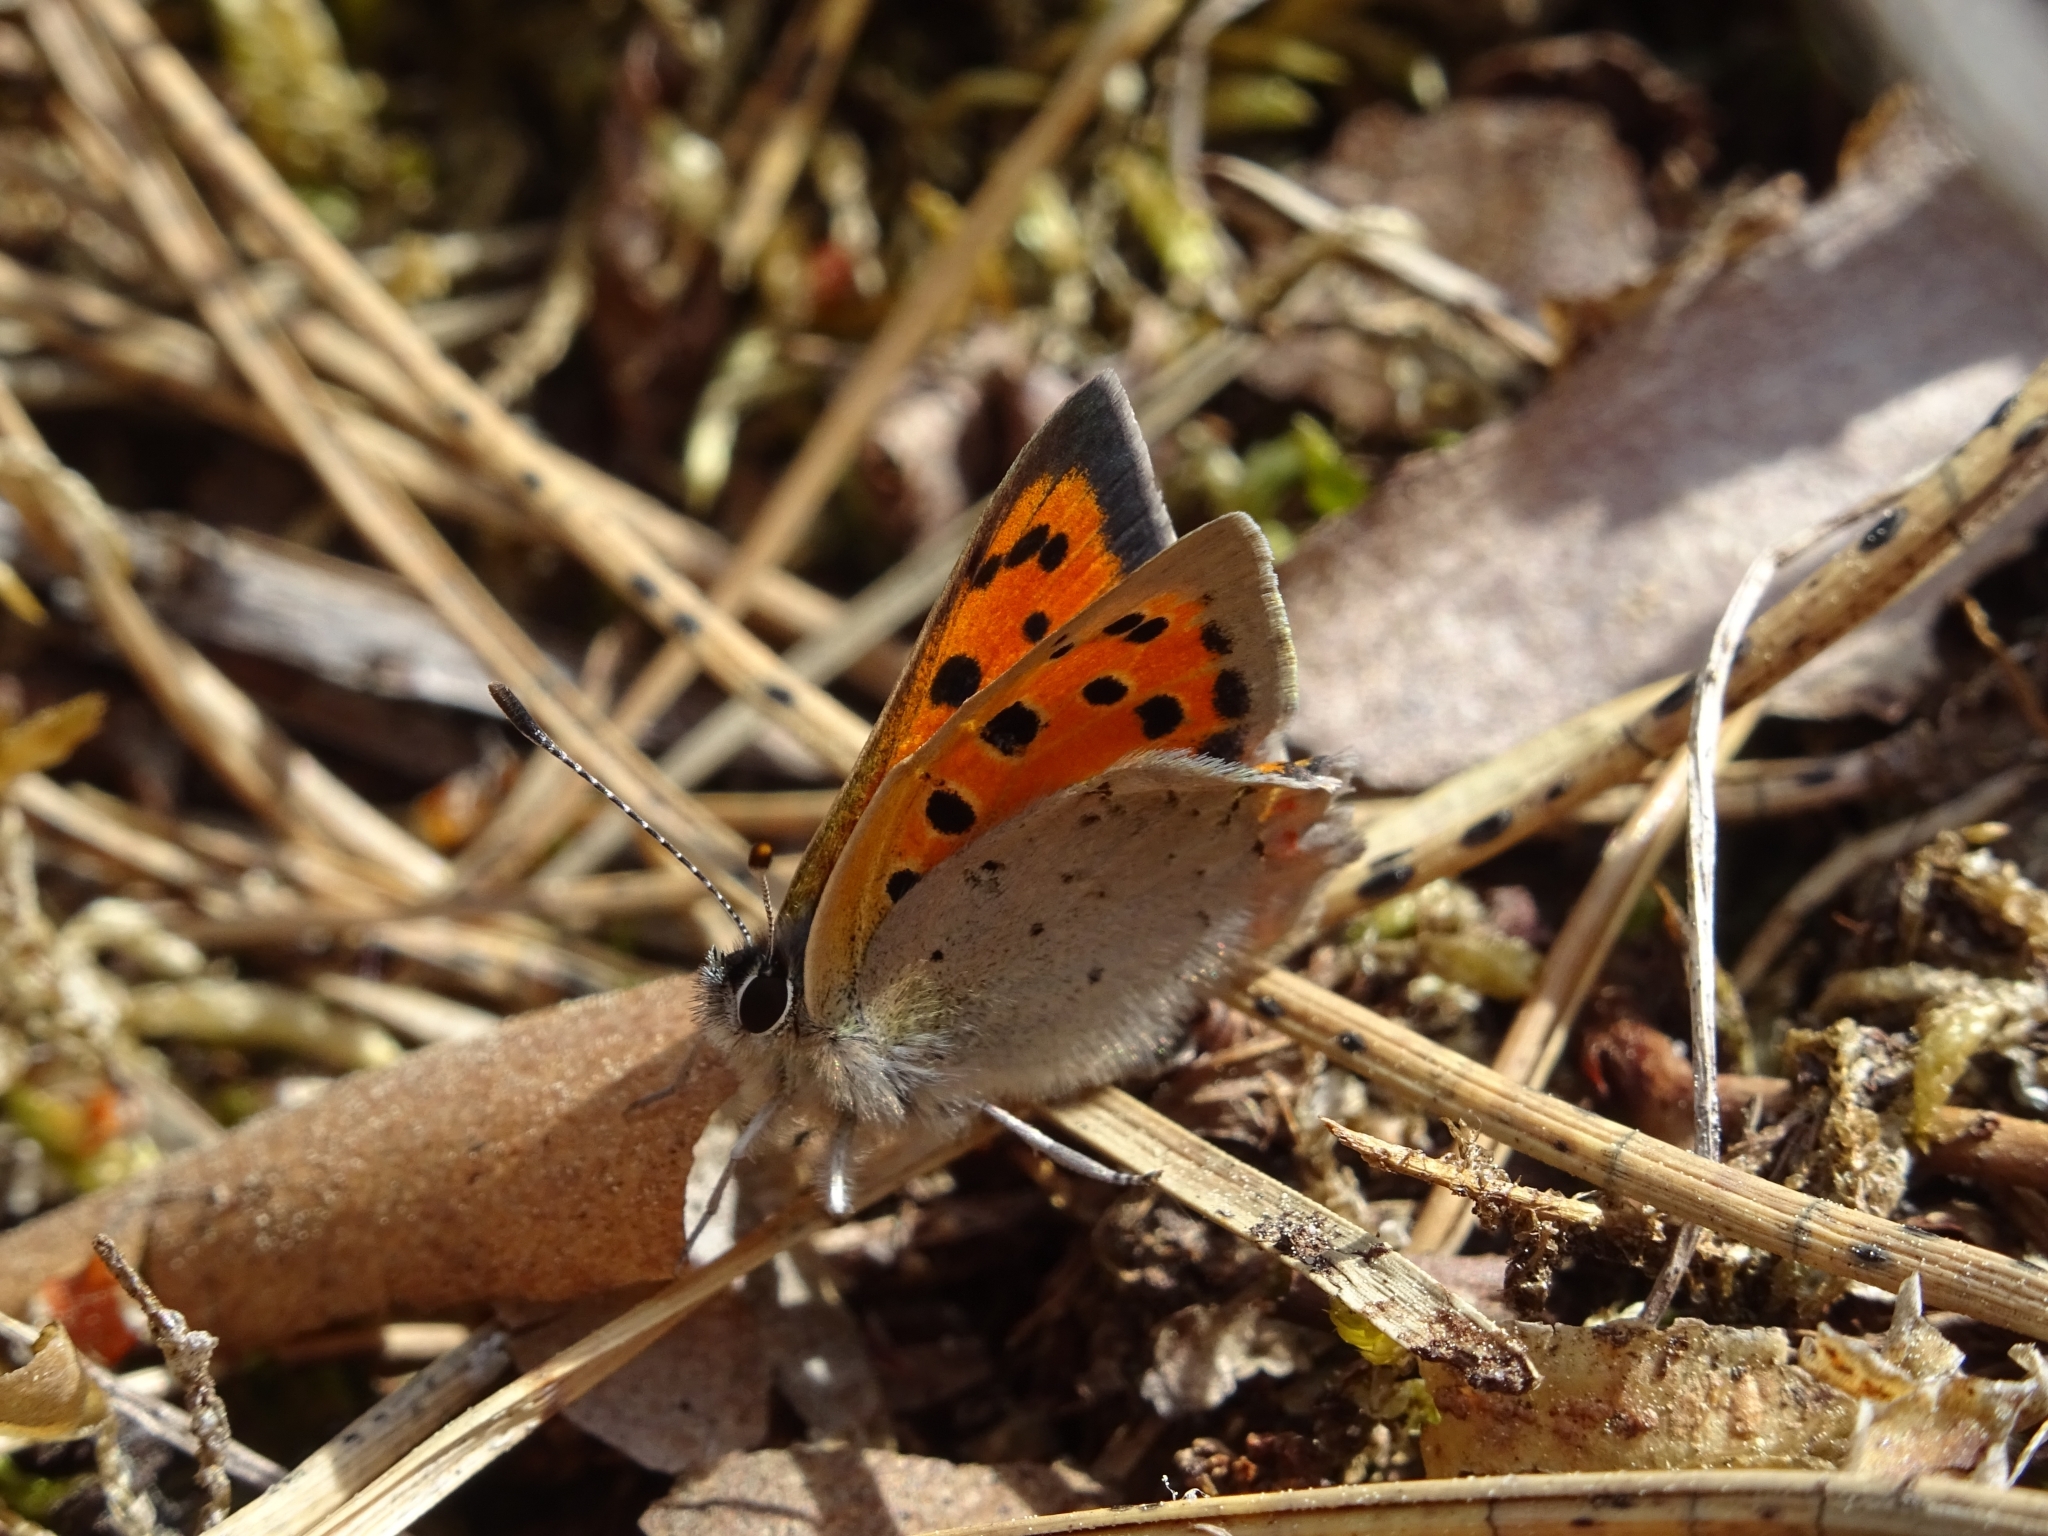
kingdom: Animalia
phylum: Arthropoda
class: Insecta
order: Lepidoptera
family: Lycaenidae
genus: Lycaena
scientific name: Lycaena phlaeas
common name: Small copper
